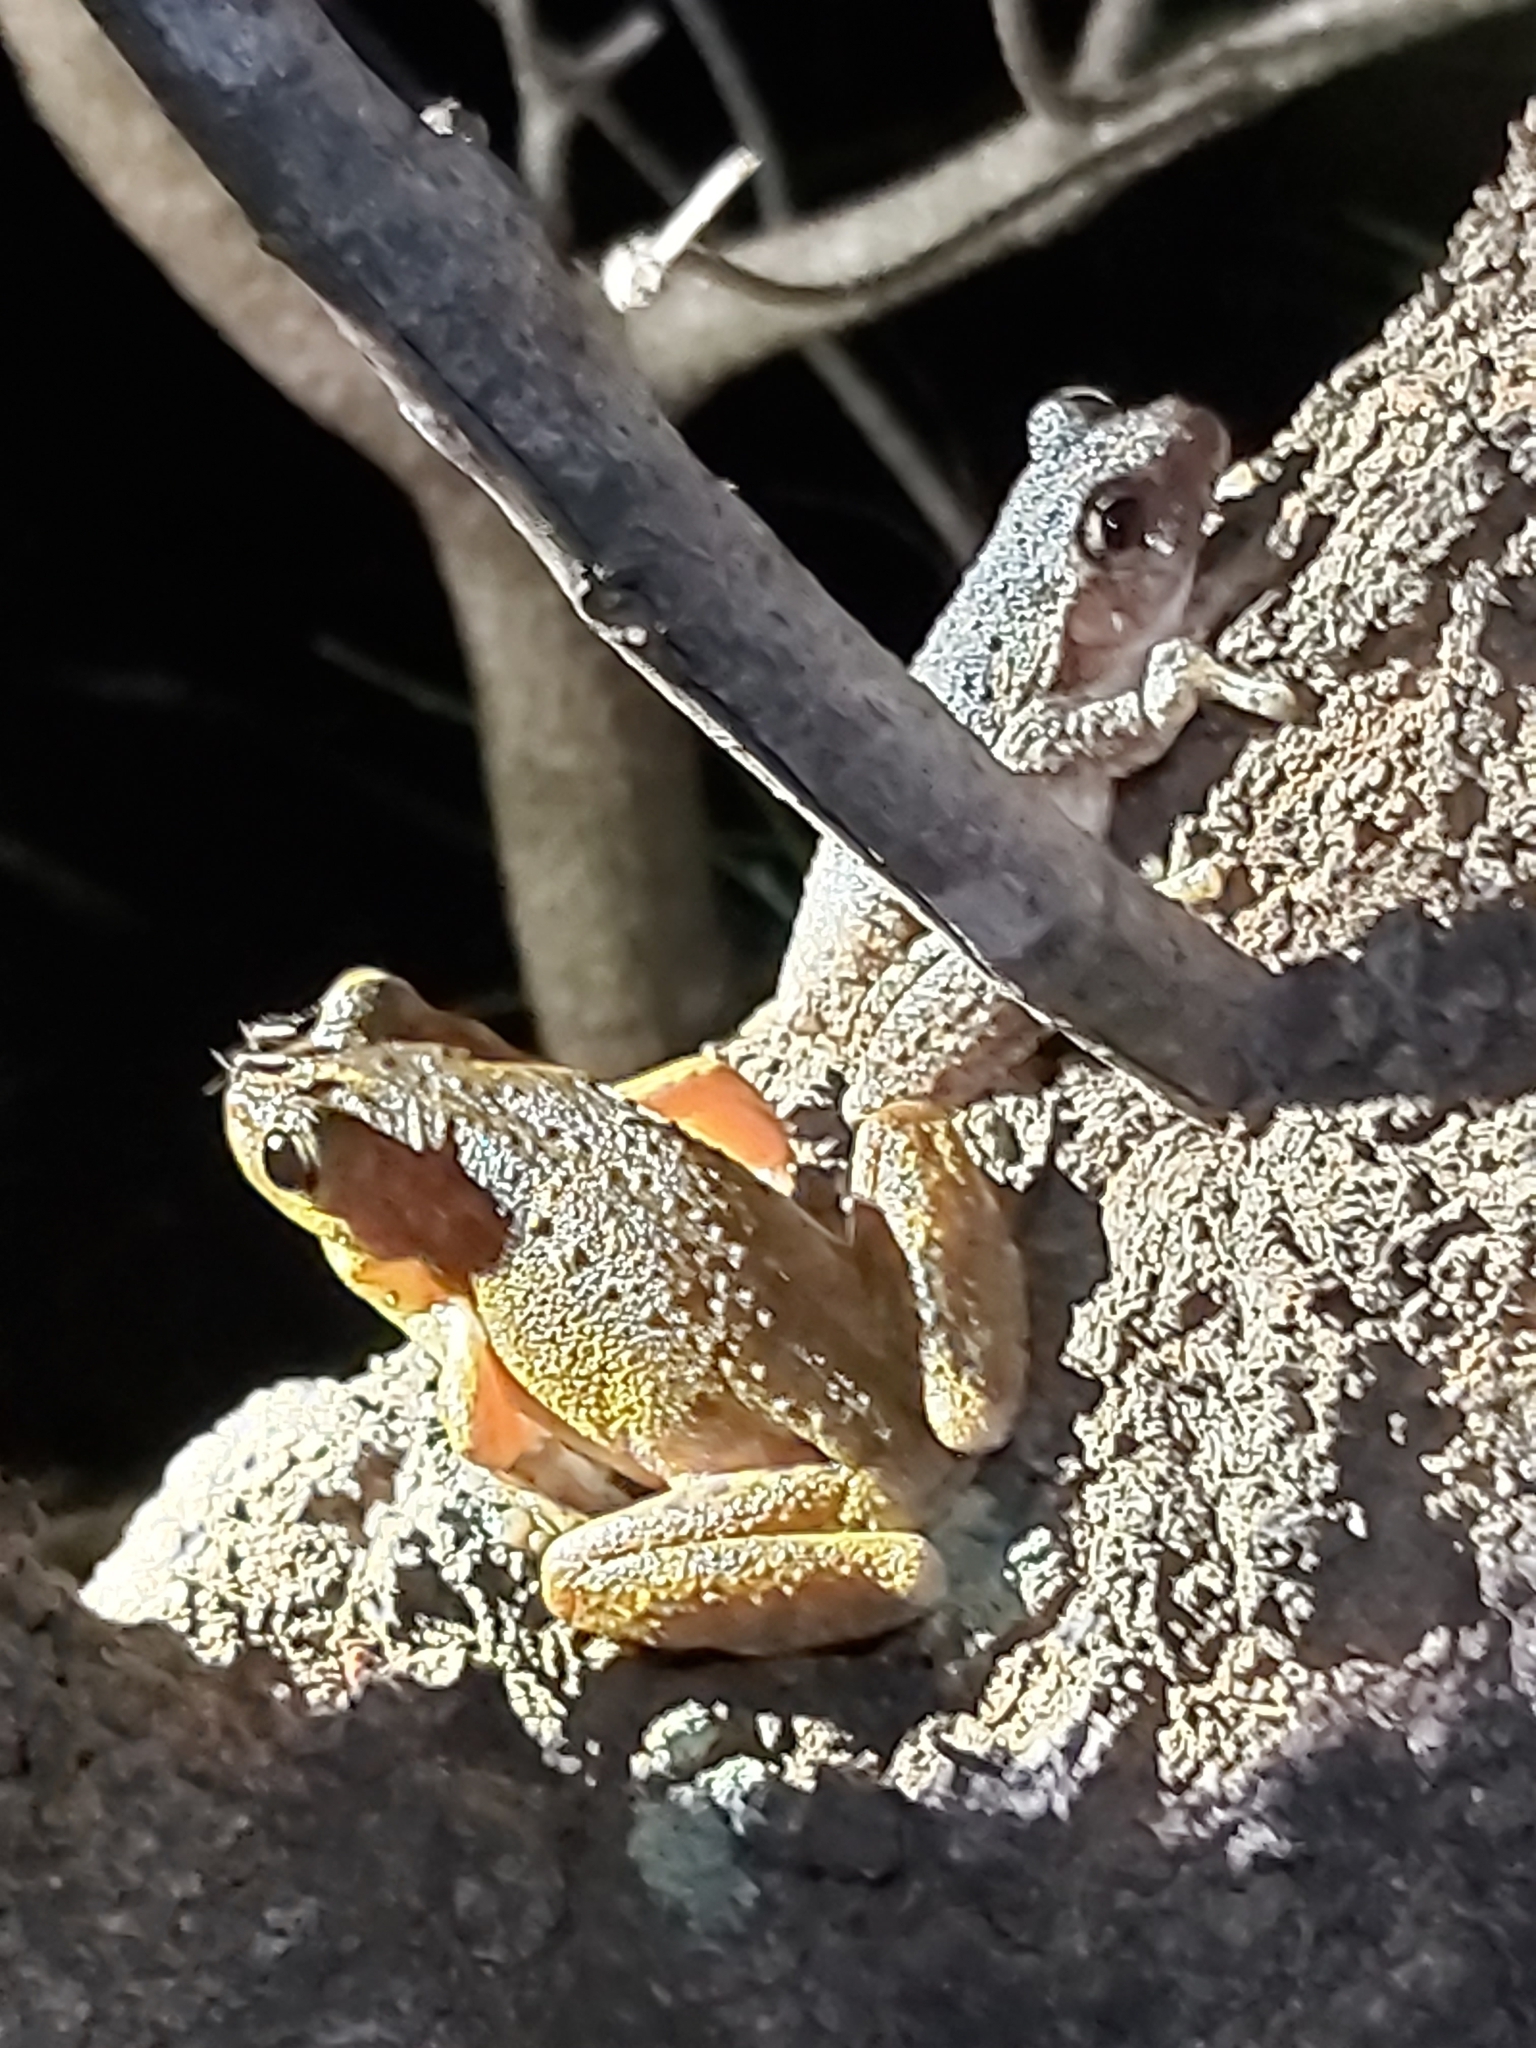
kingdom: Animalia
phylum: Chordata
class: Amphibia
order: Anura
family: Pelodryadidae
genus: Litoria
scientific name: Litoria peronii
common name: Emerald spotted treefrog
